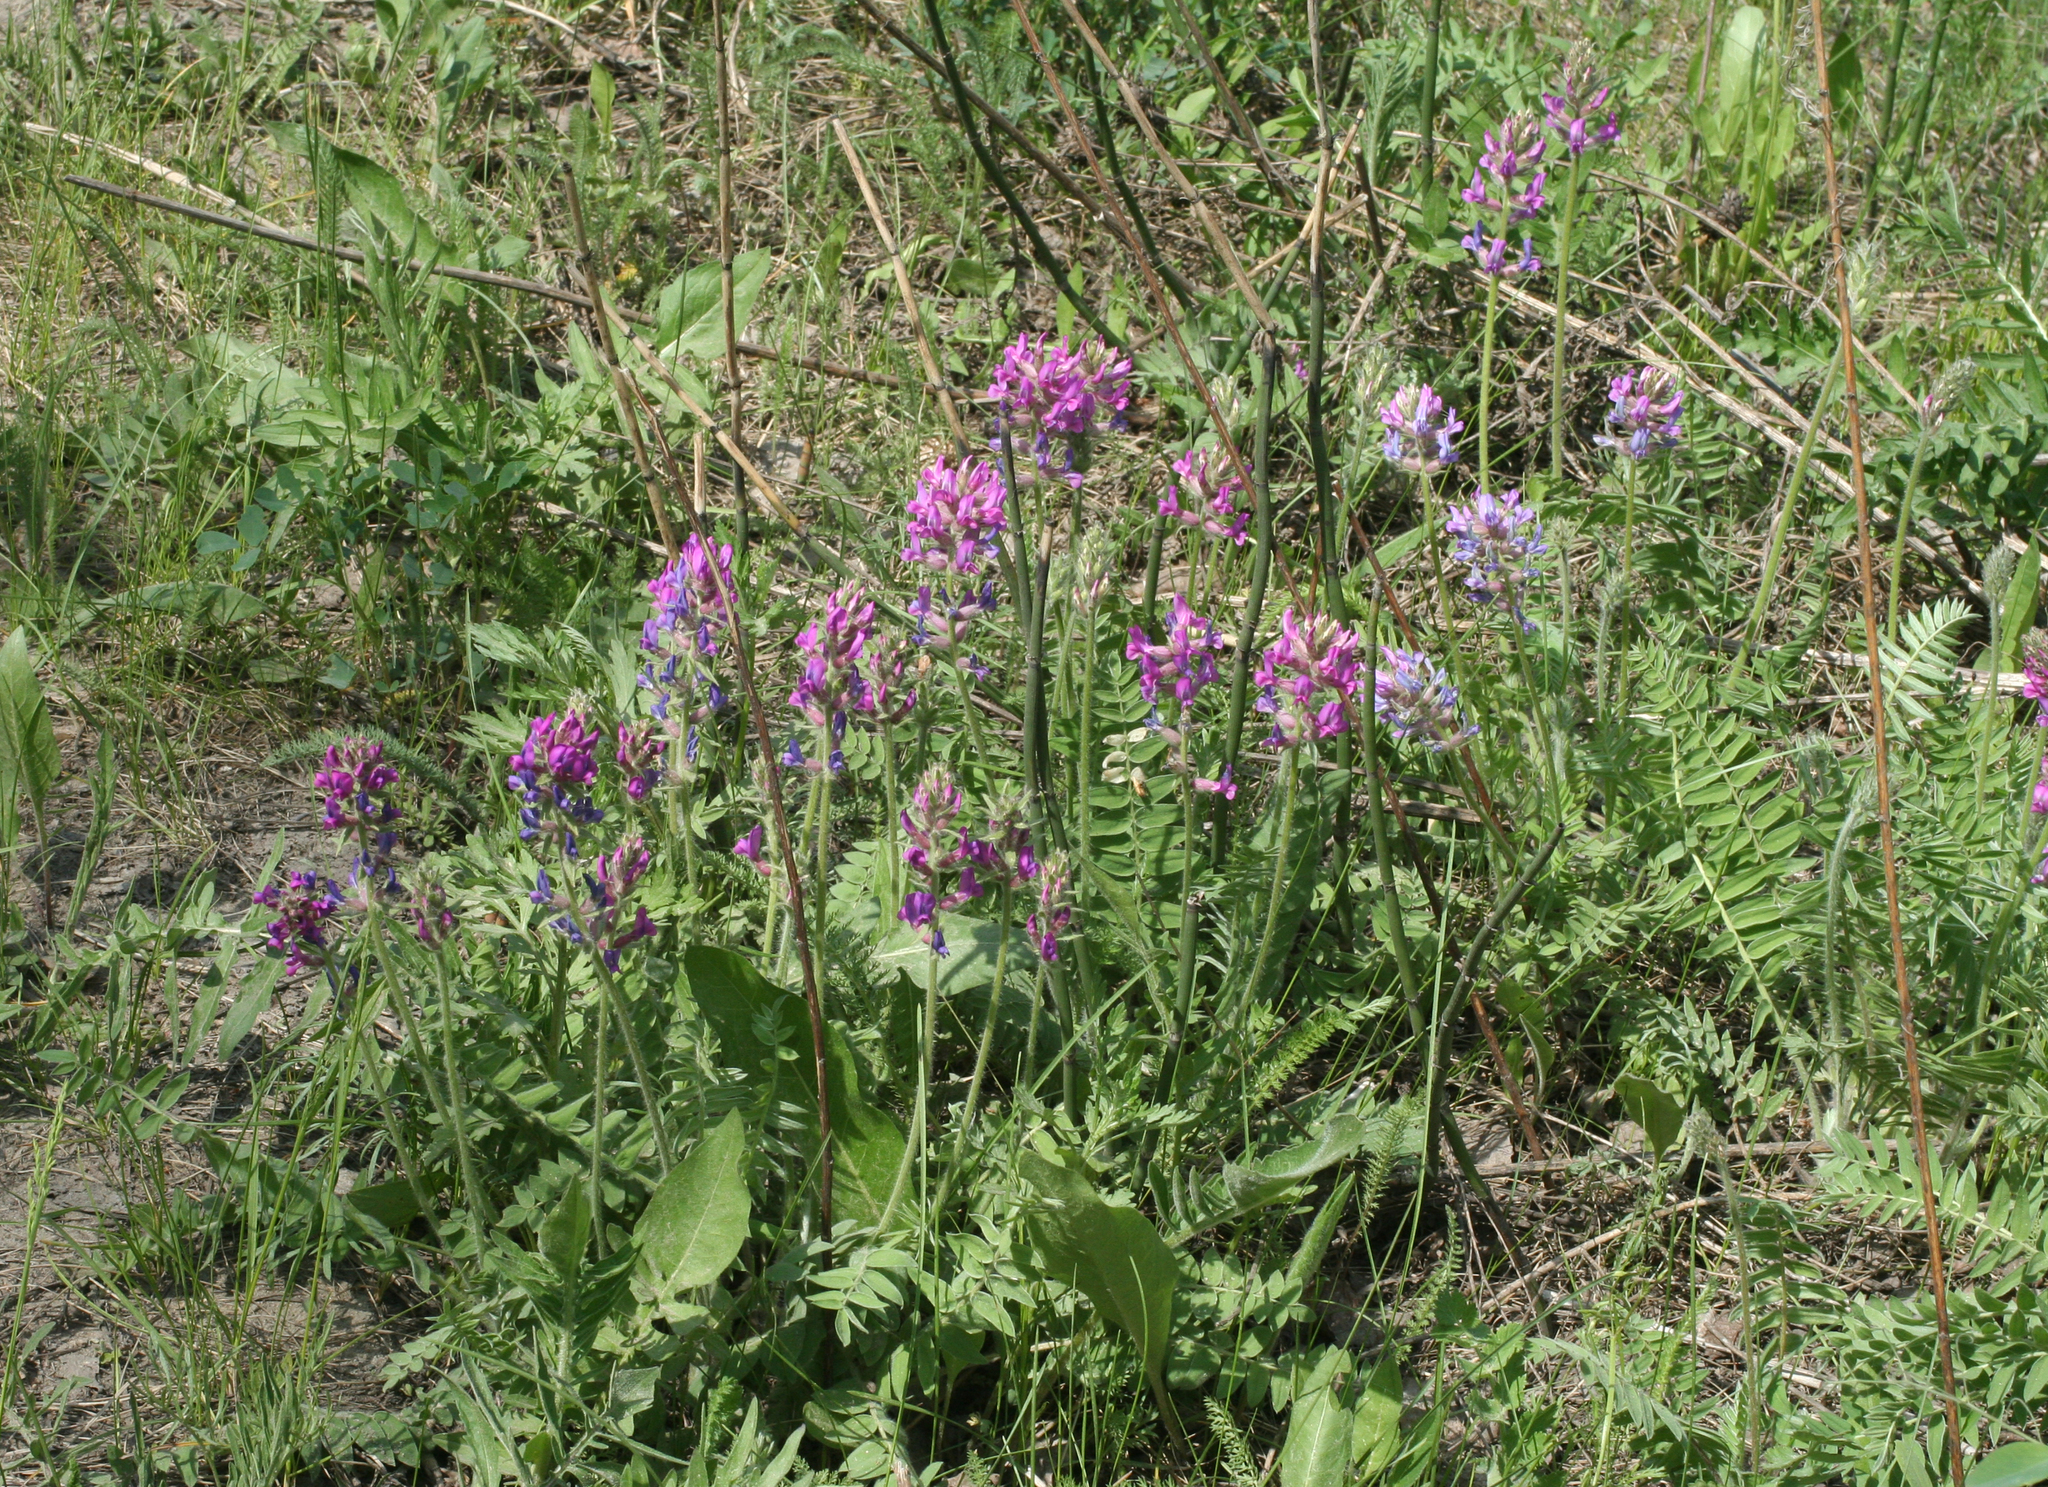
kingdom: Plantae
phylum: Tracheophyta
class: Magnoliopsida
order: Fabales
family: Fabaceae
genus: Oxytropis
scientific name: Oxytropis campanulata
